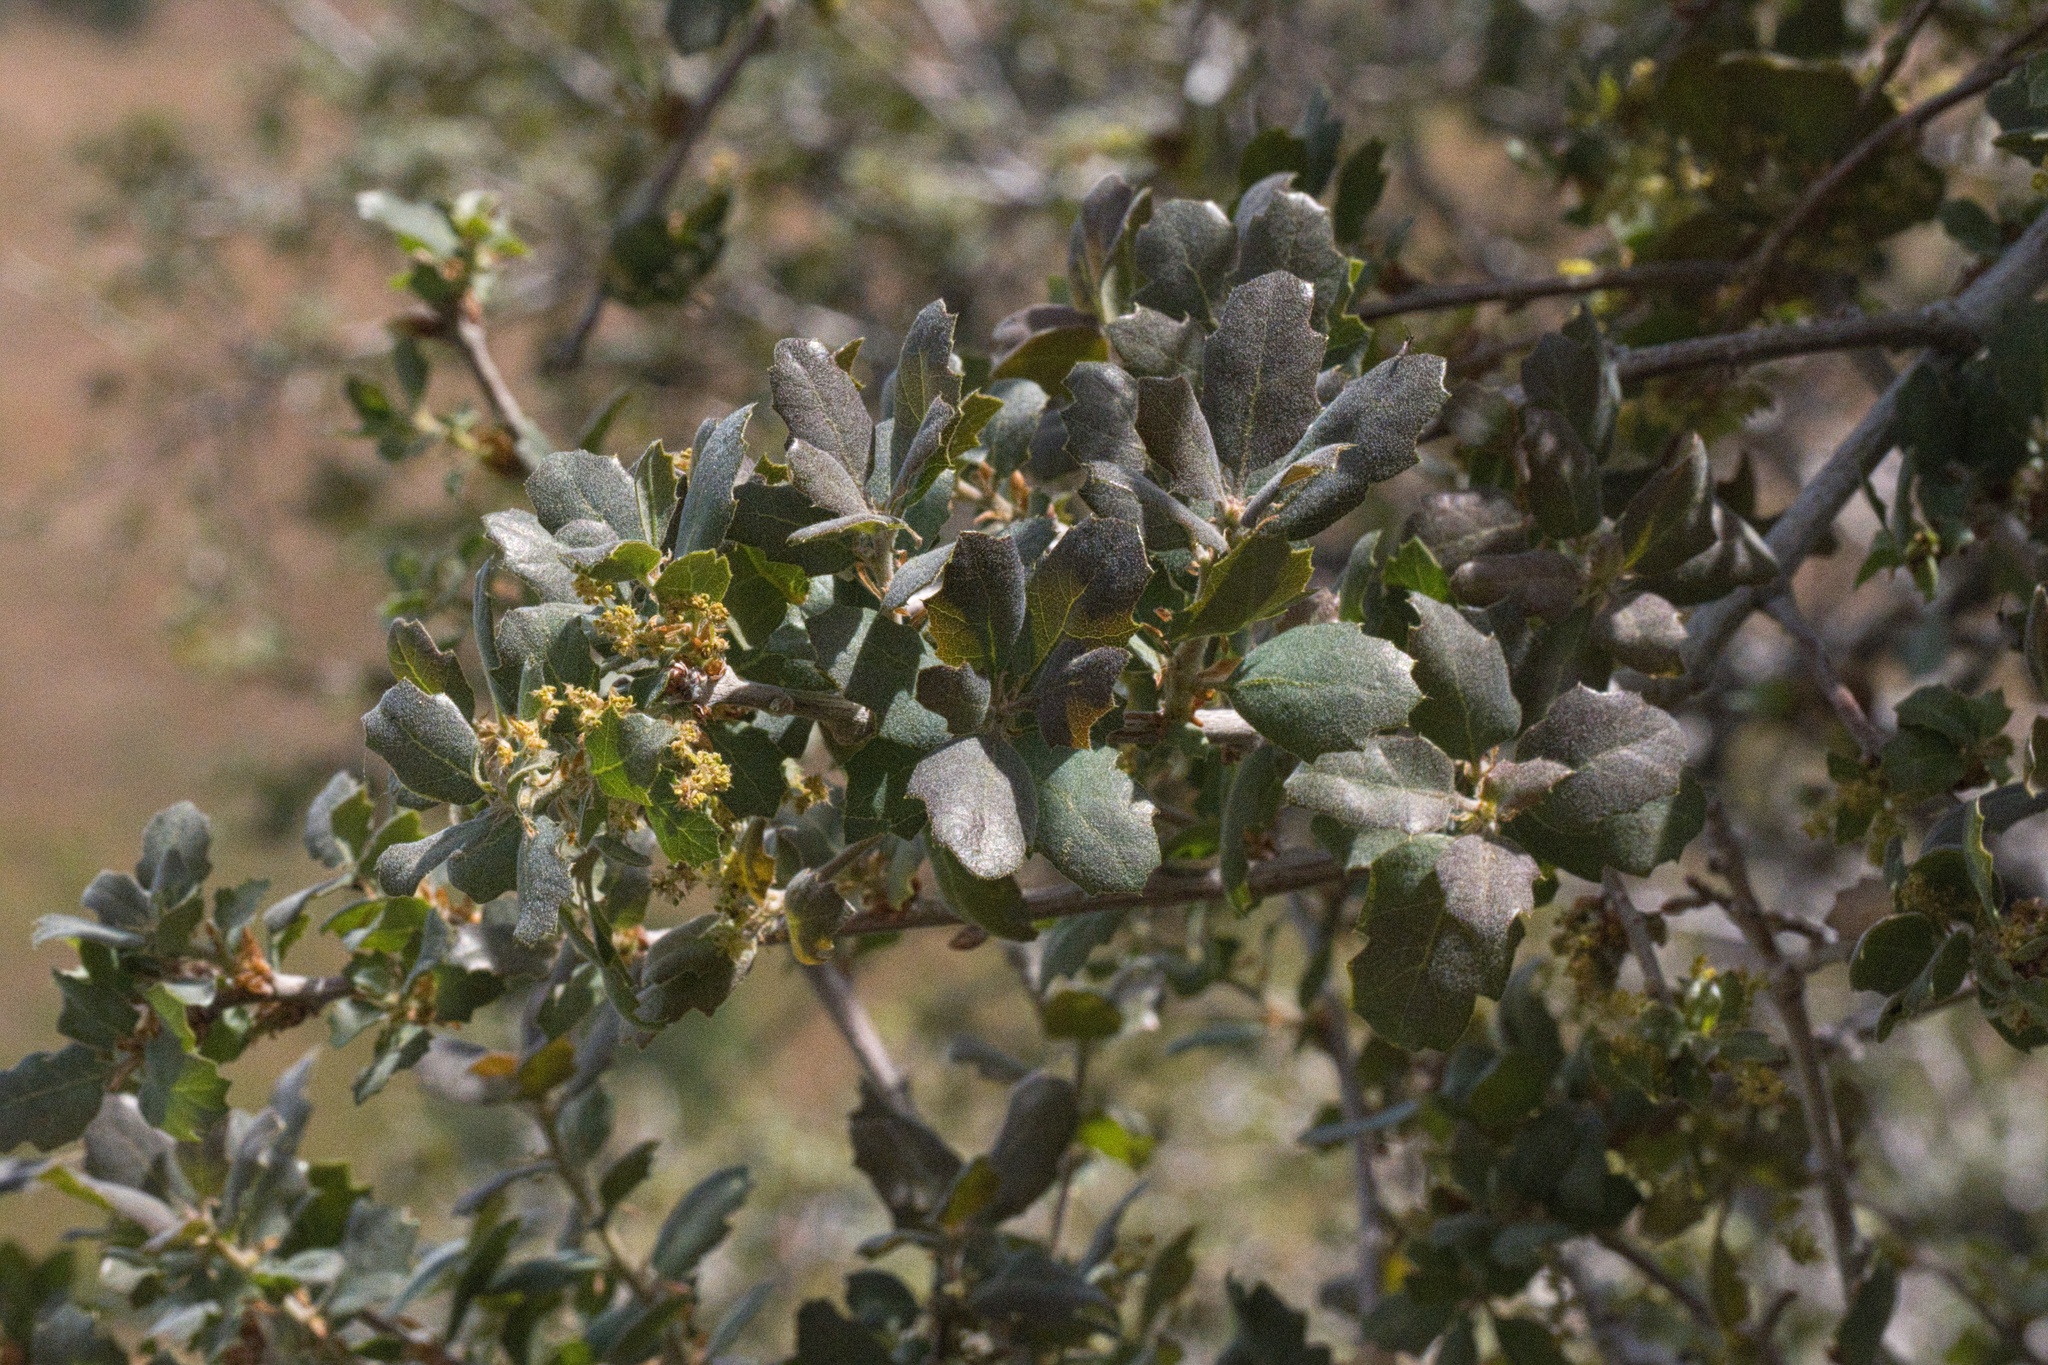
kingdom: Plantae
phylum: Tracheophyta
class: Magnoliopsida
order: Fagales
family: Fagaceae
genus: Quercus
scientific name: Quercus john-tuckeri
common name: Tucker's oak
